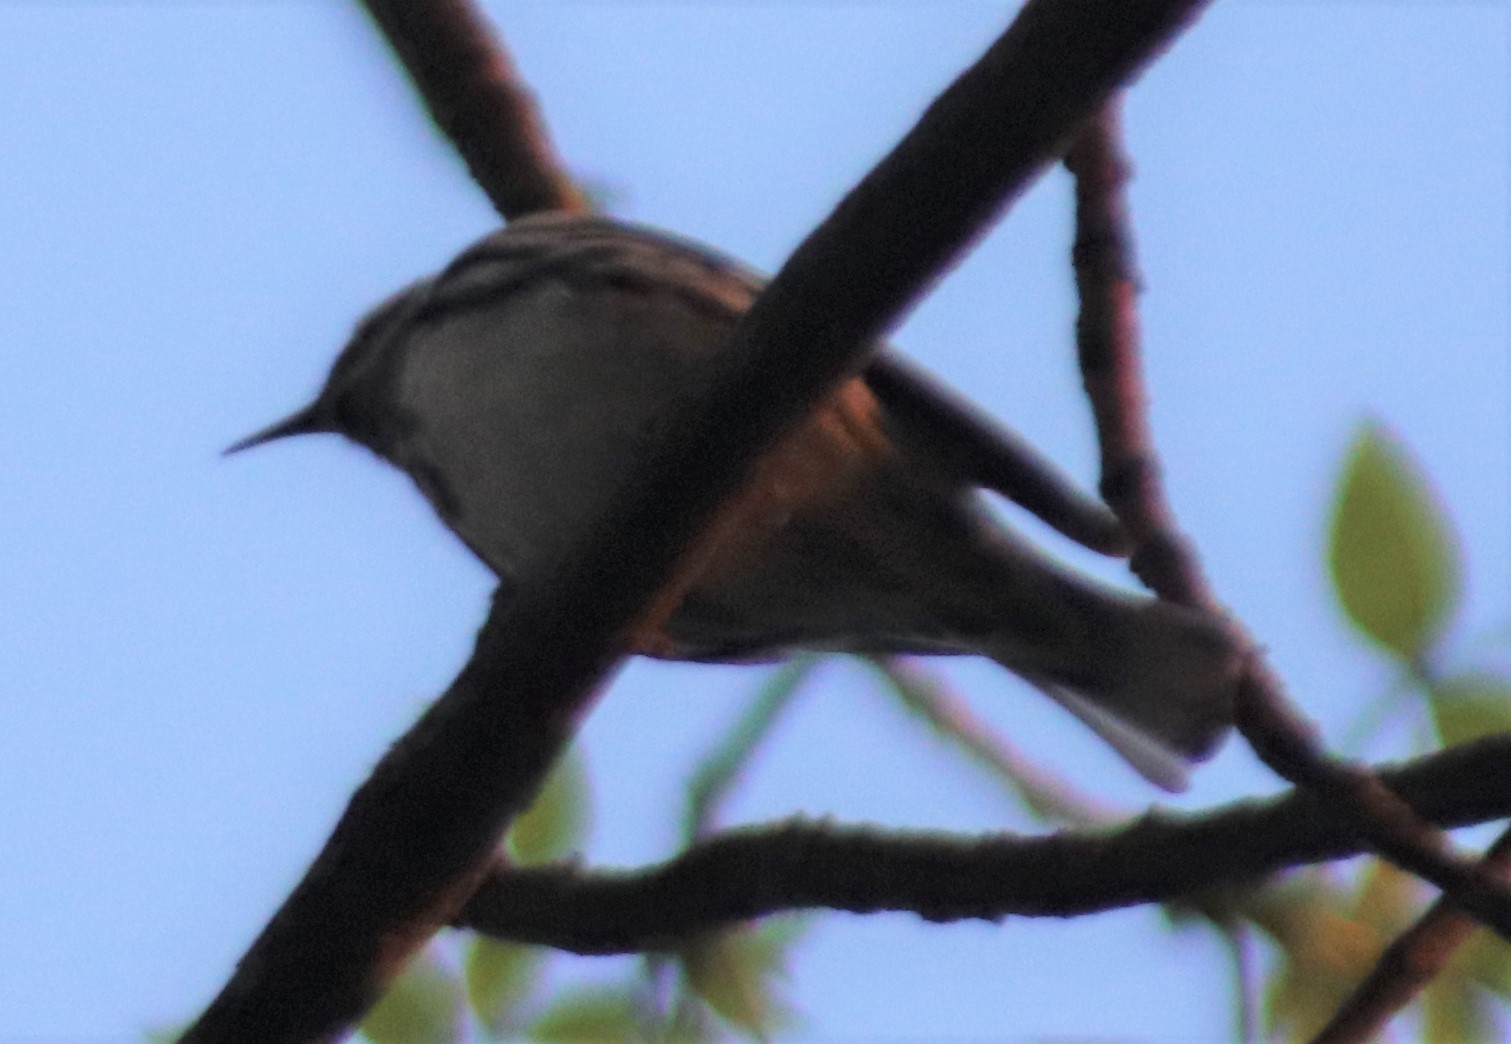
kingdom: Animalia
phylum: Chordata
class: Aves
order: Passeriformes
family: Parulidae
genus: Mniotilta
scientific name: Mniotilta varia
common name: Black-and-white warbler
